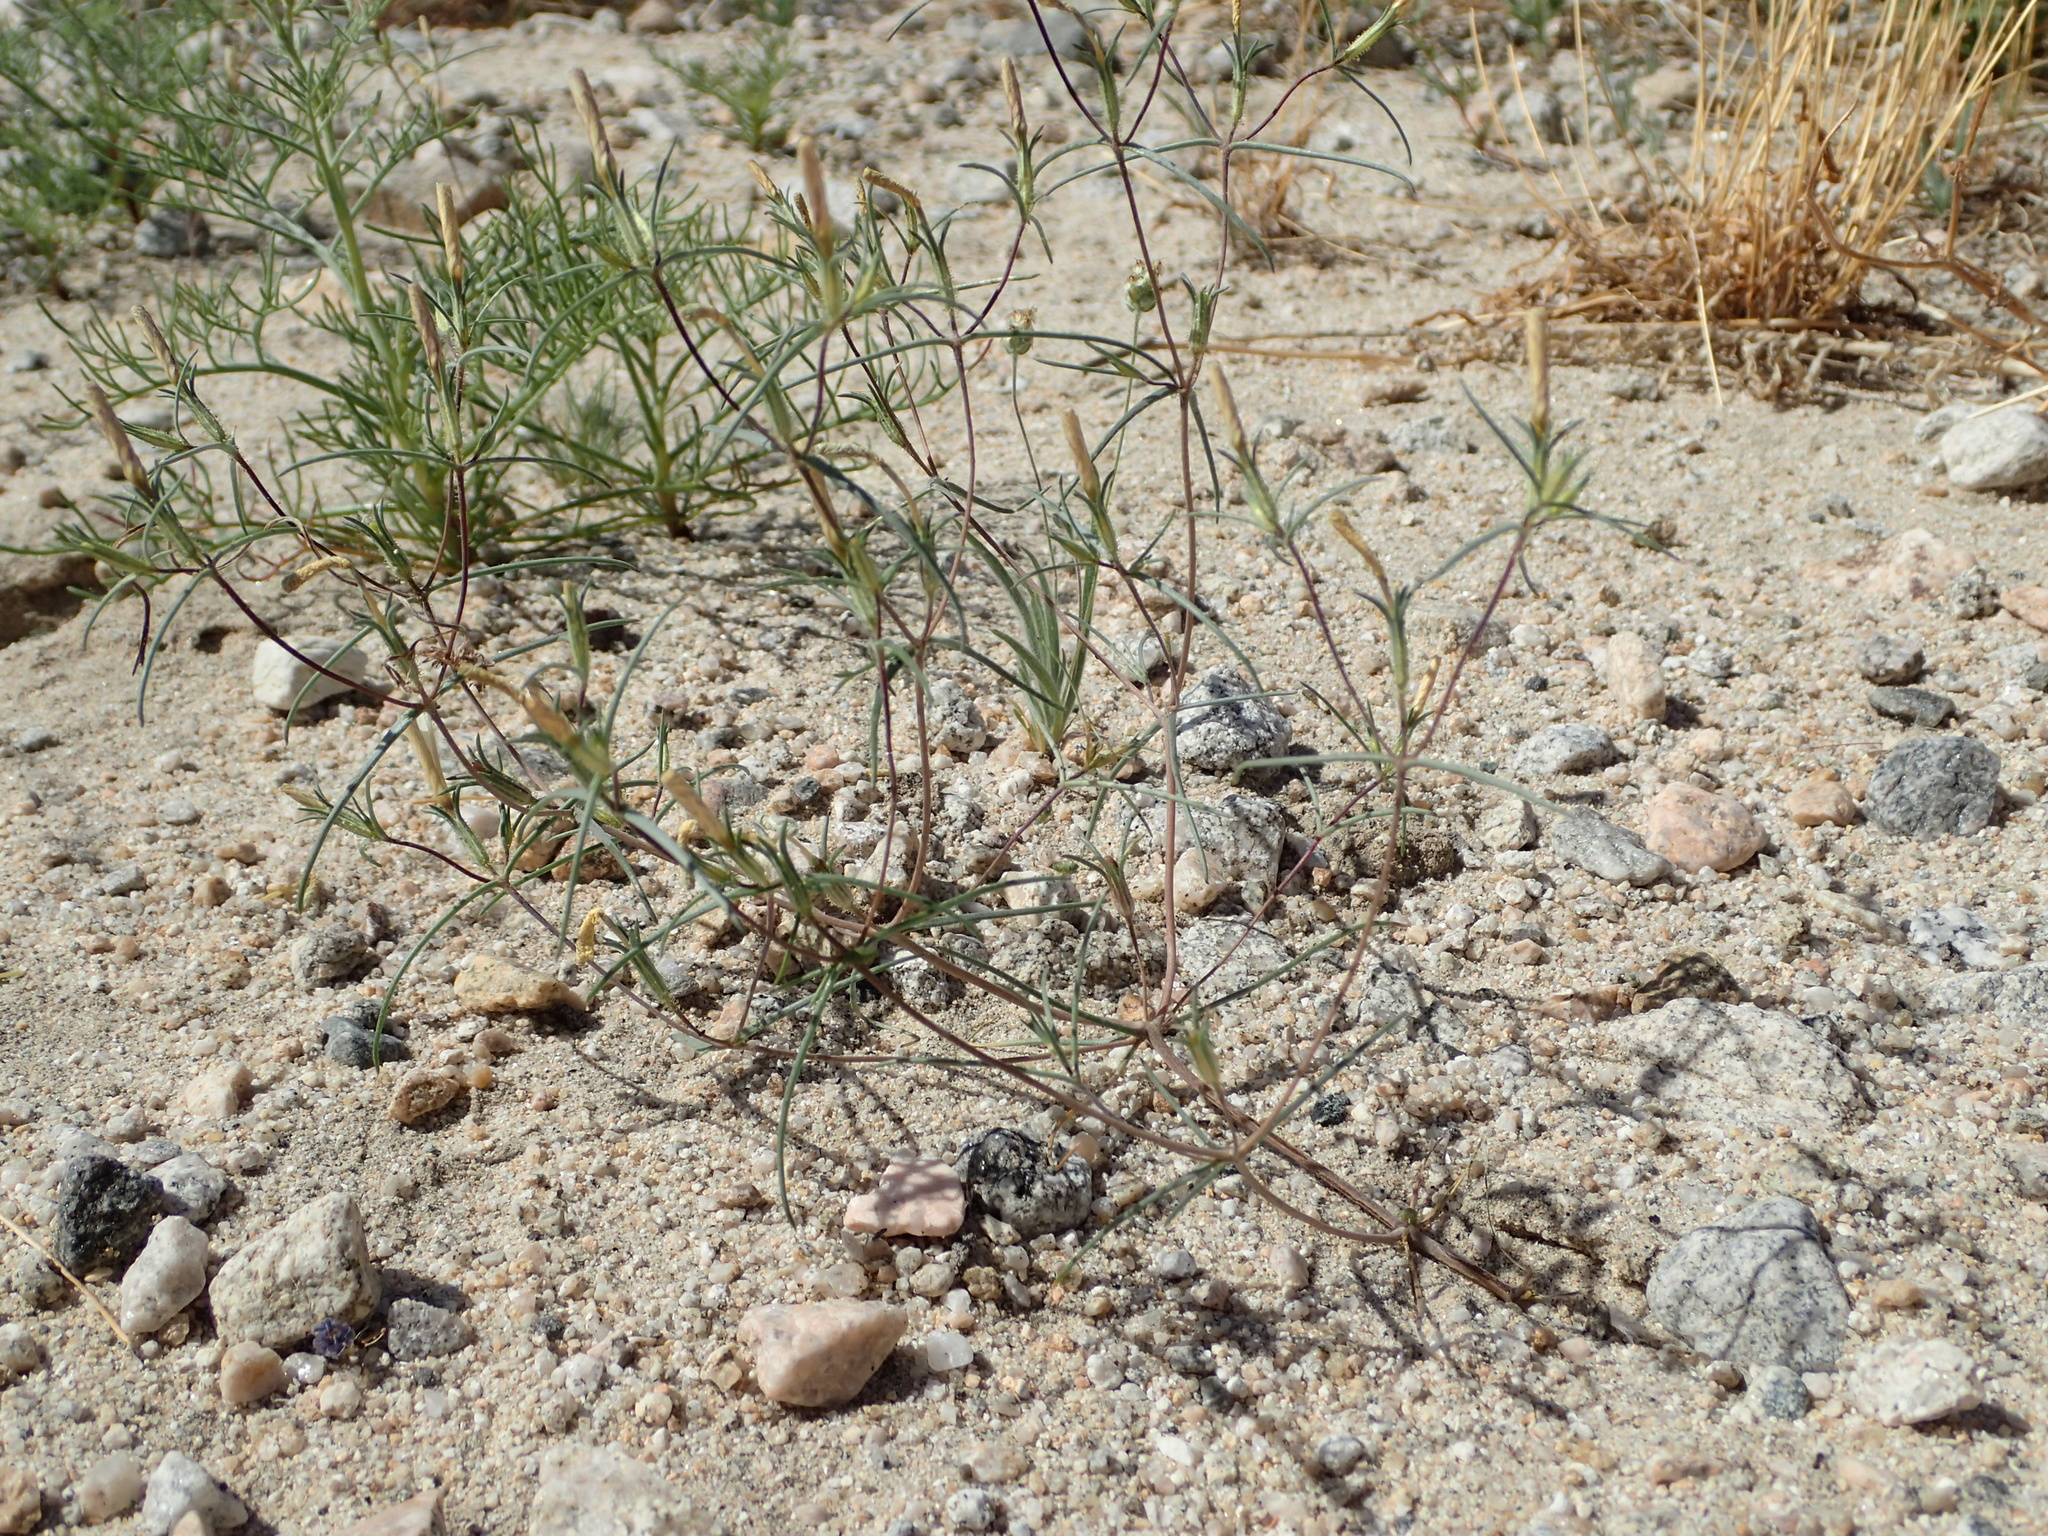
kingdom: Plantae
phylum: Tracheophyta
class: Magnoliopsida
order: Ericales
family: Polemoniaceae
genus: Linanthus
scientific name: Linanthus jonesii
